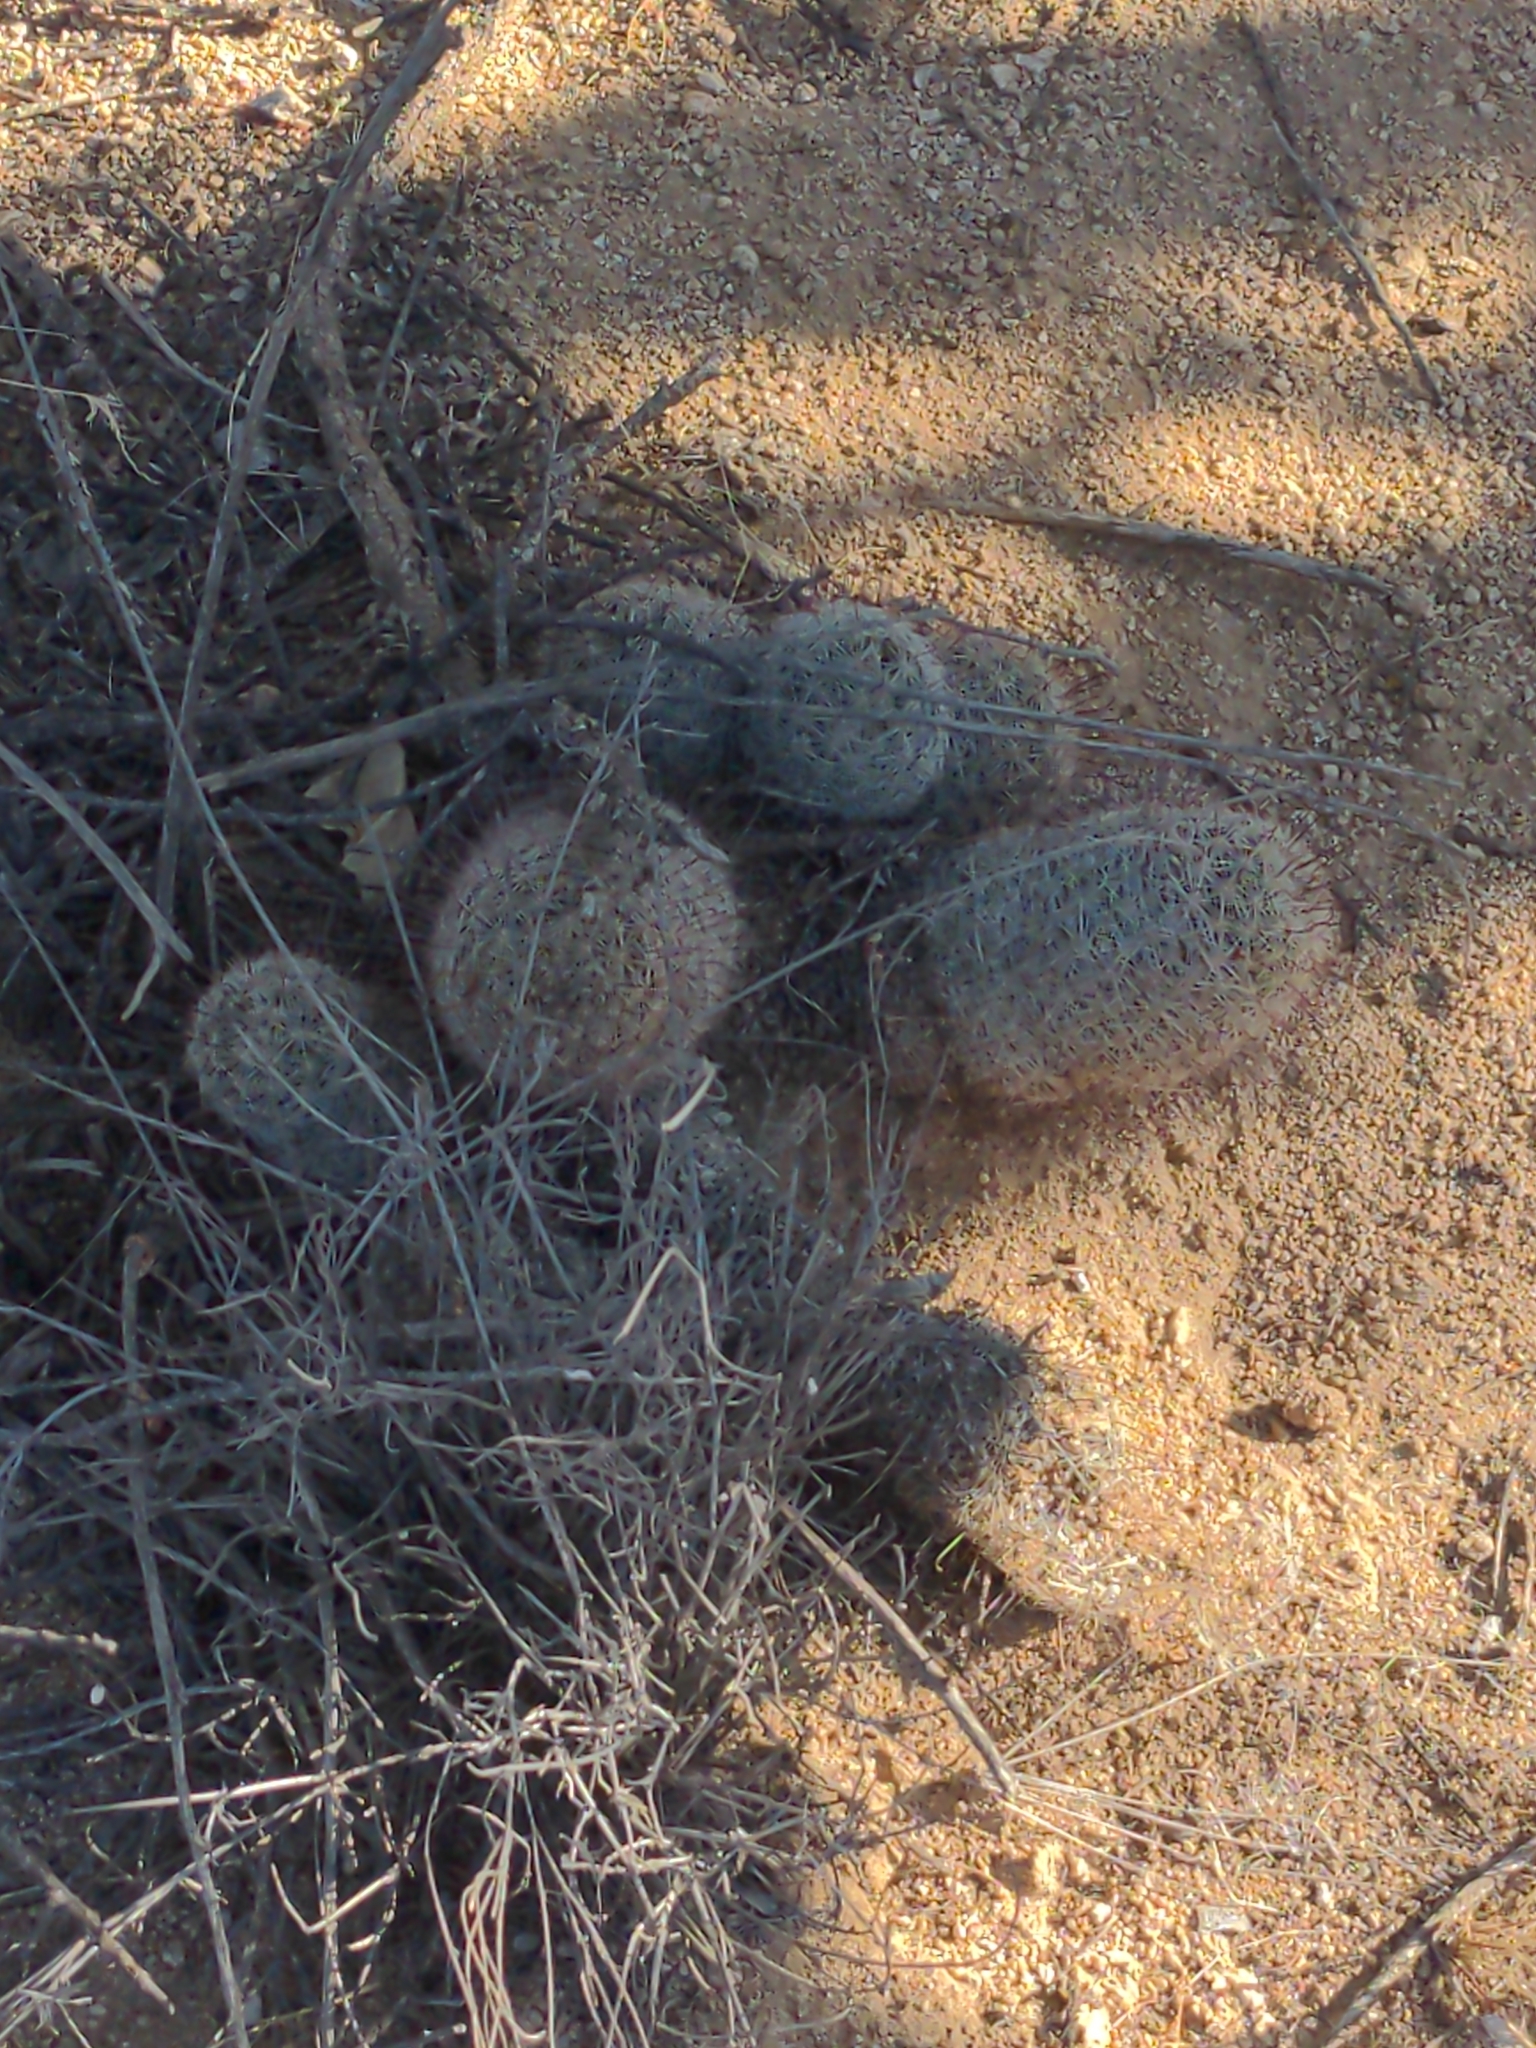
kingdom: Plantae
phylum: Tracheophyta
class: Magnoliopsida
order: Caryophyllales
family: Cactaceae
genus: Cochemiea
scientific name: Cochemiea grahamii
